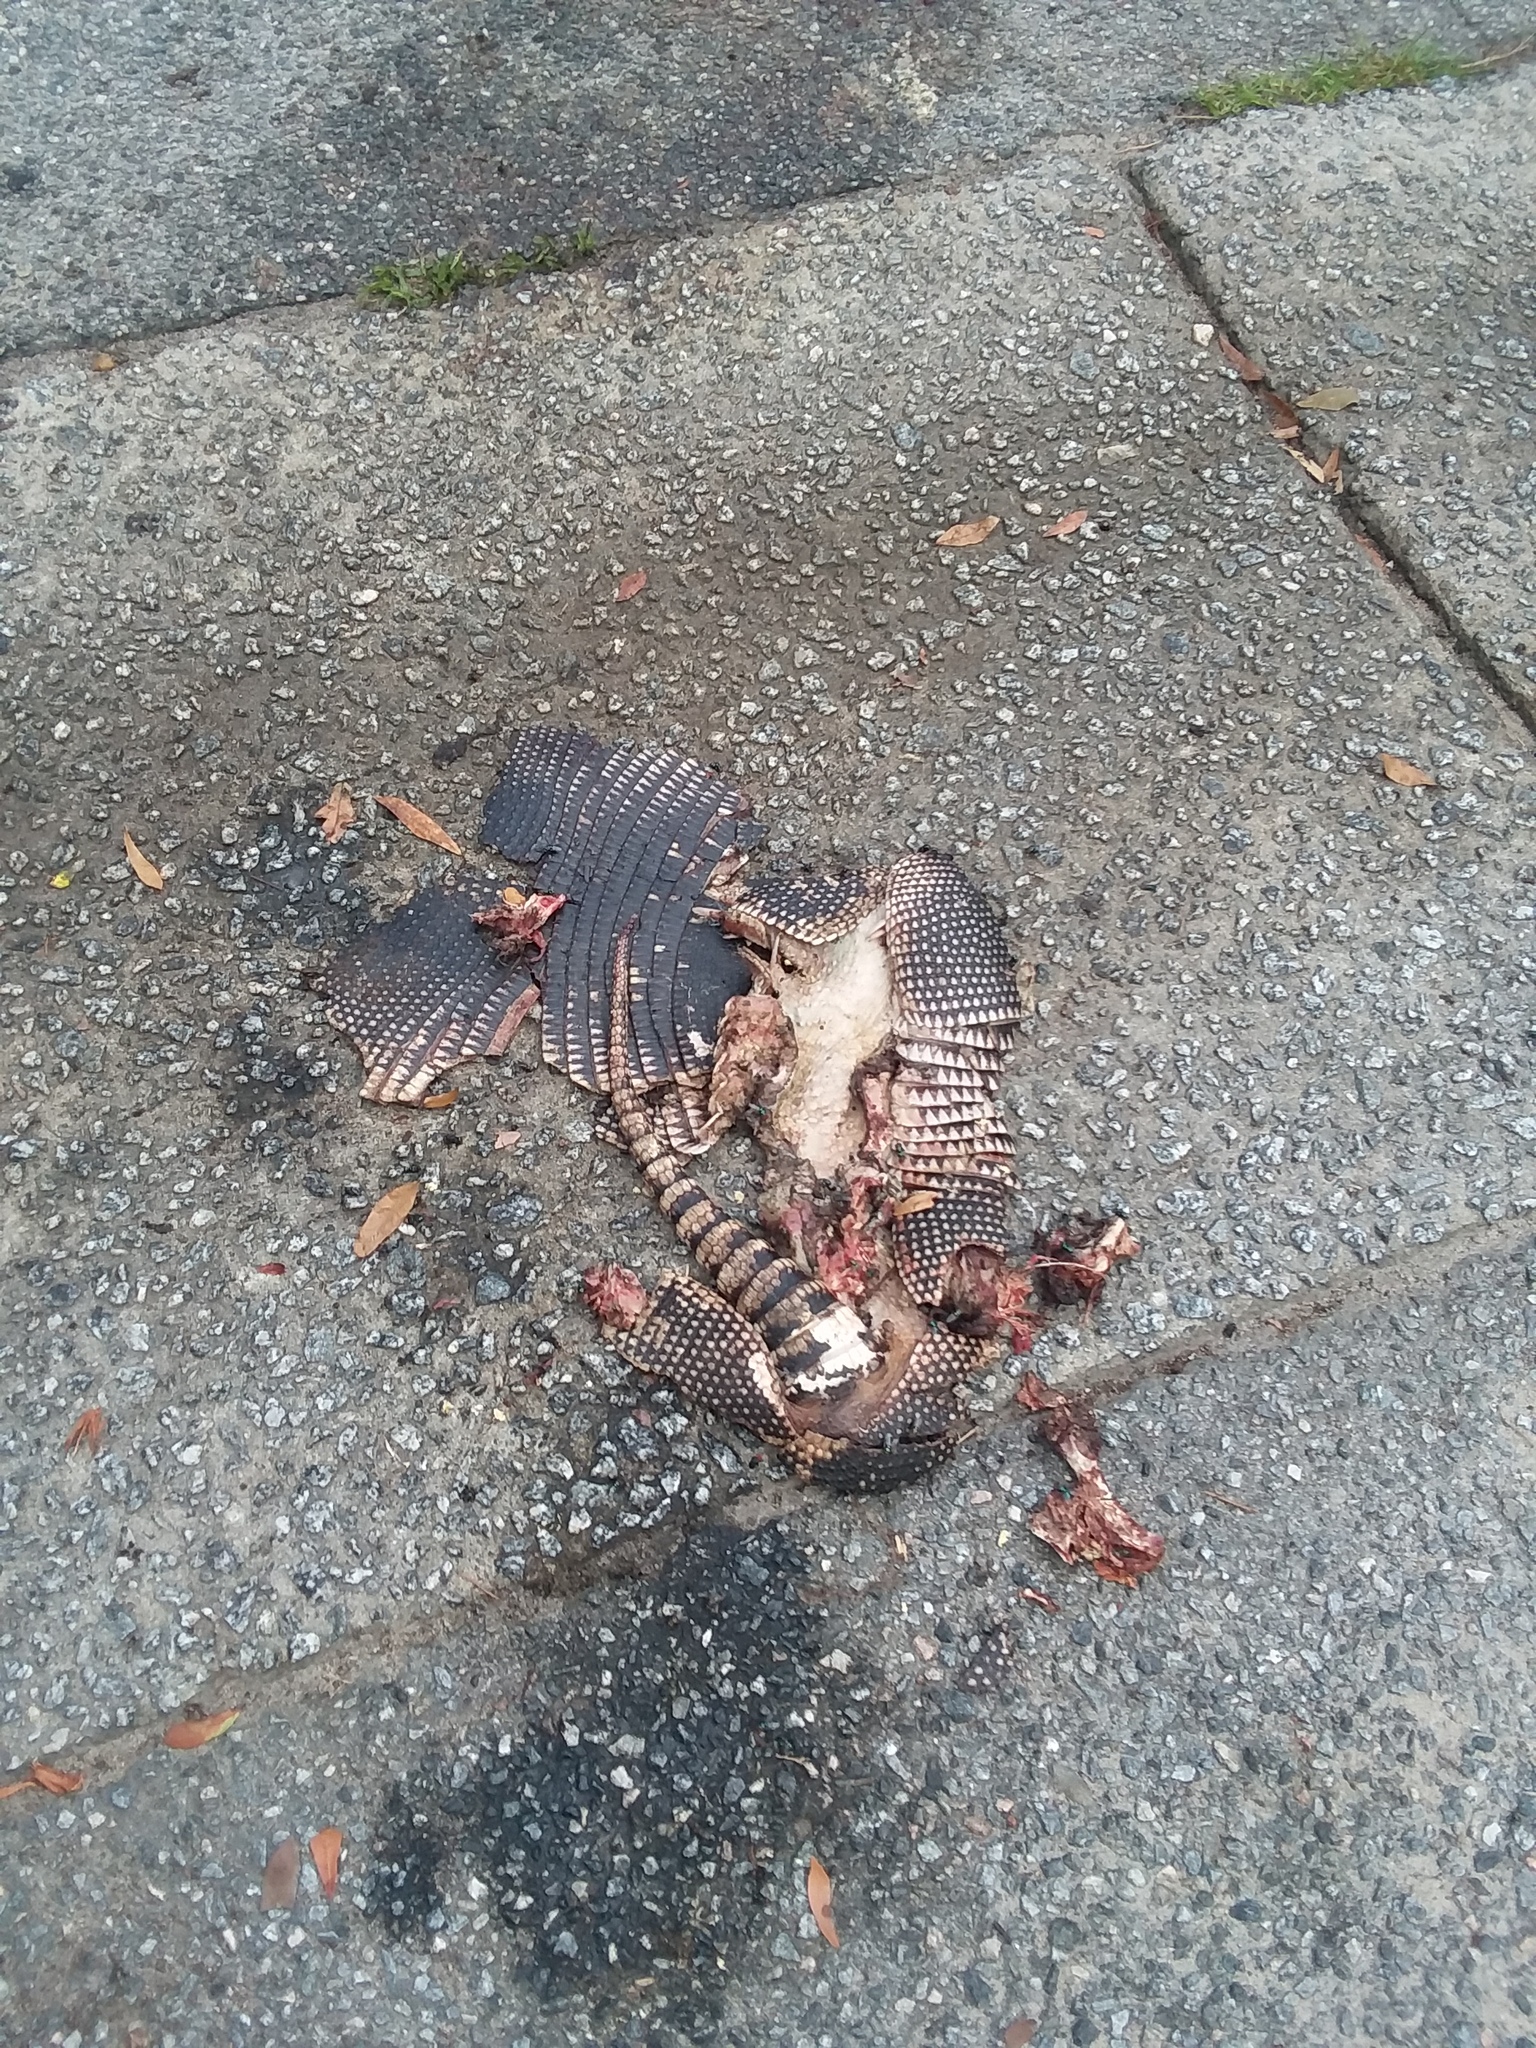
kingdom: Animalia
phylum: Chordata
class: Mammalia
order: Cingulata
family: Dasypodidae
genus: Dasypus
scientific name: Dasypus novemcinctus
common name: Nine-banded armadillo
